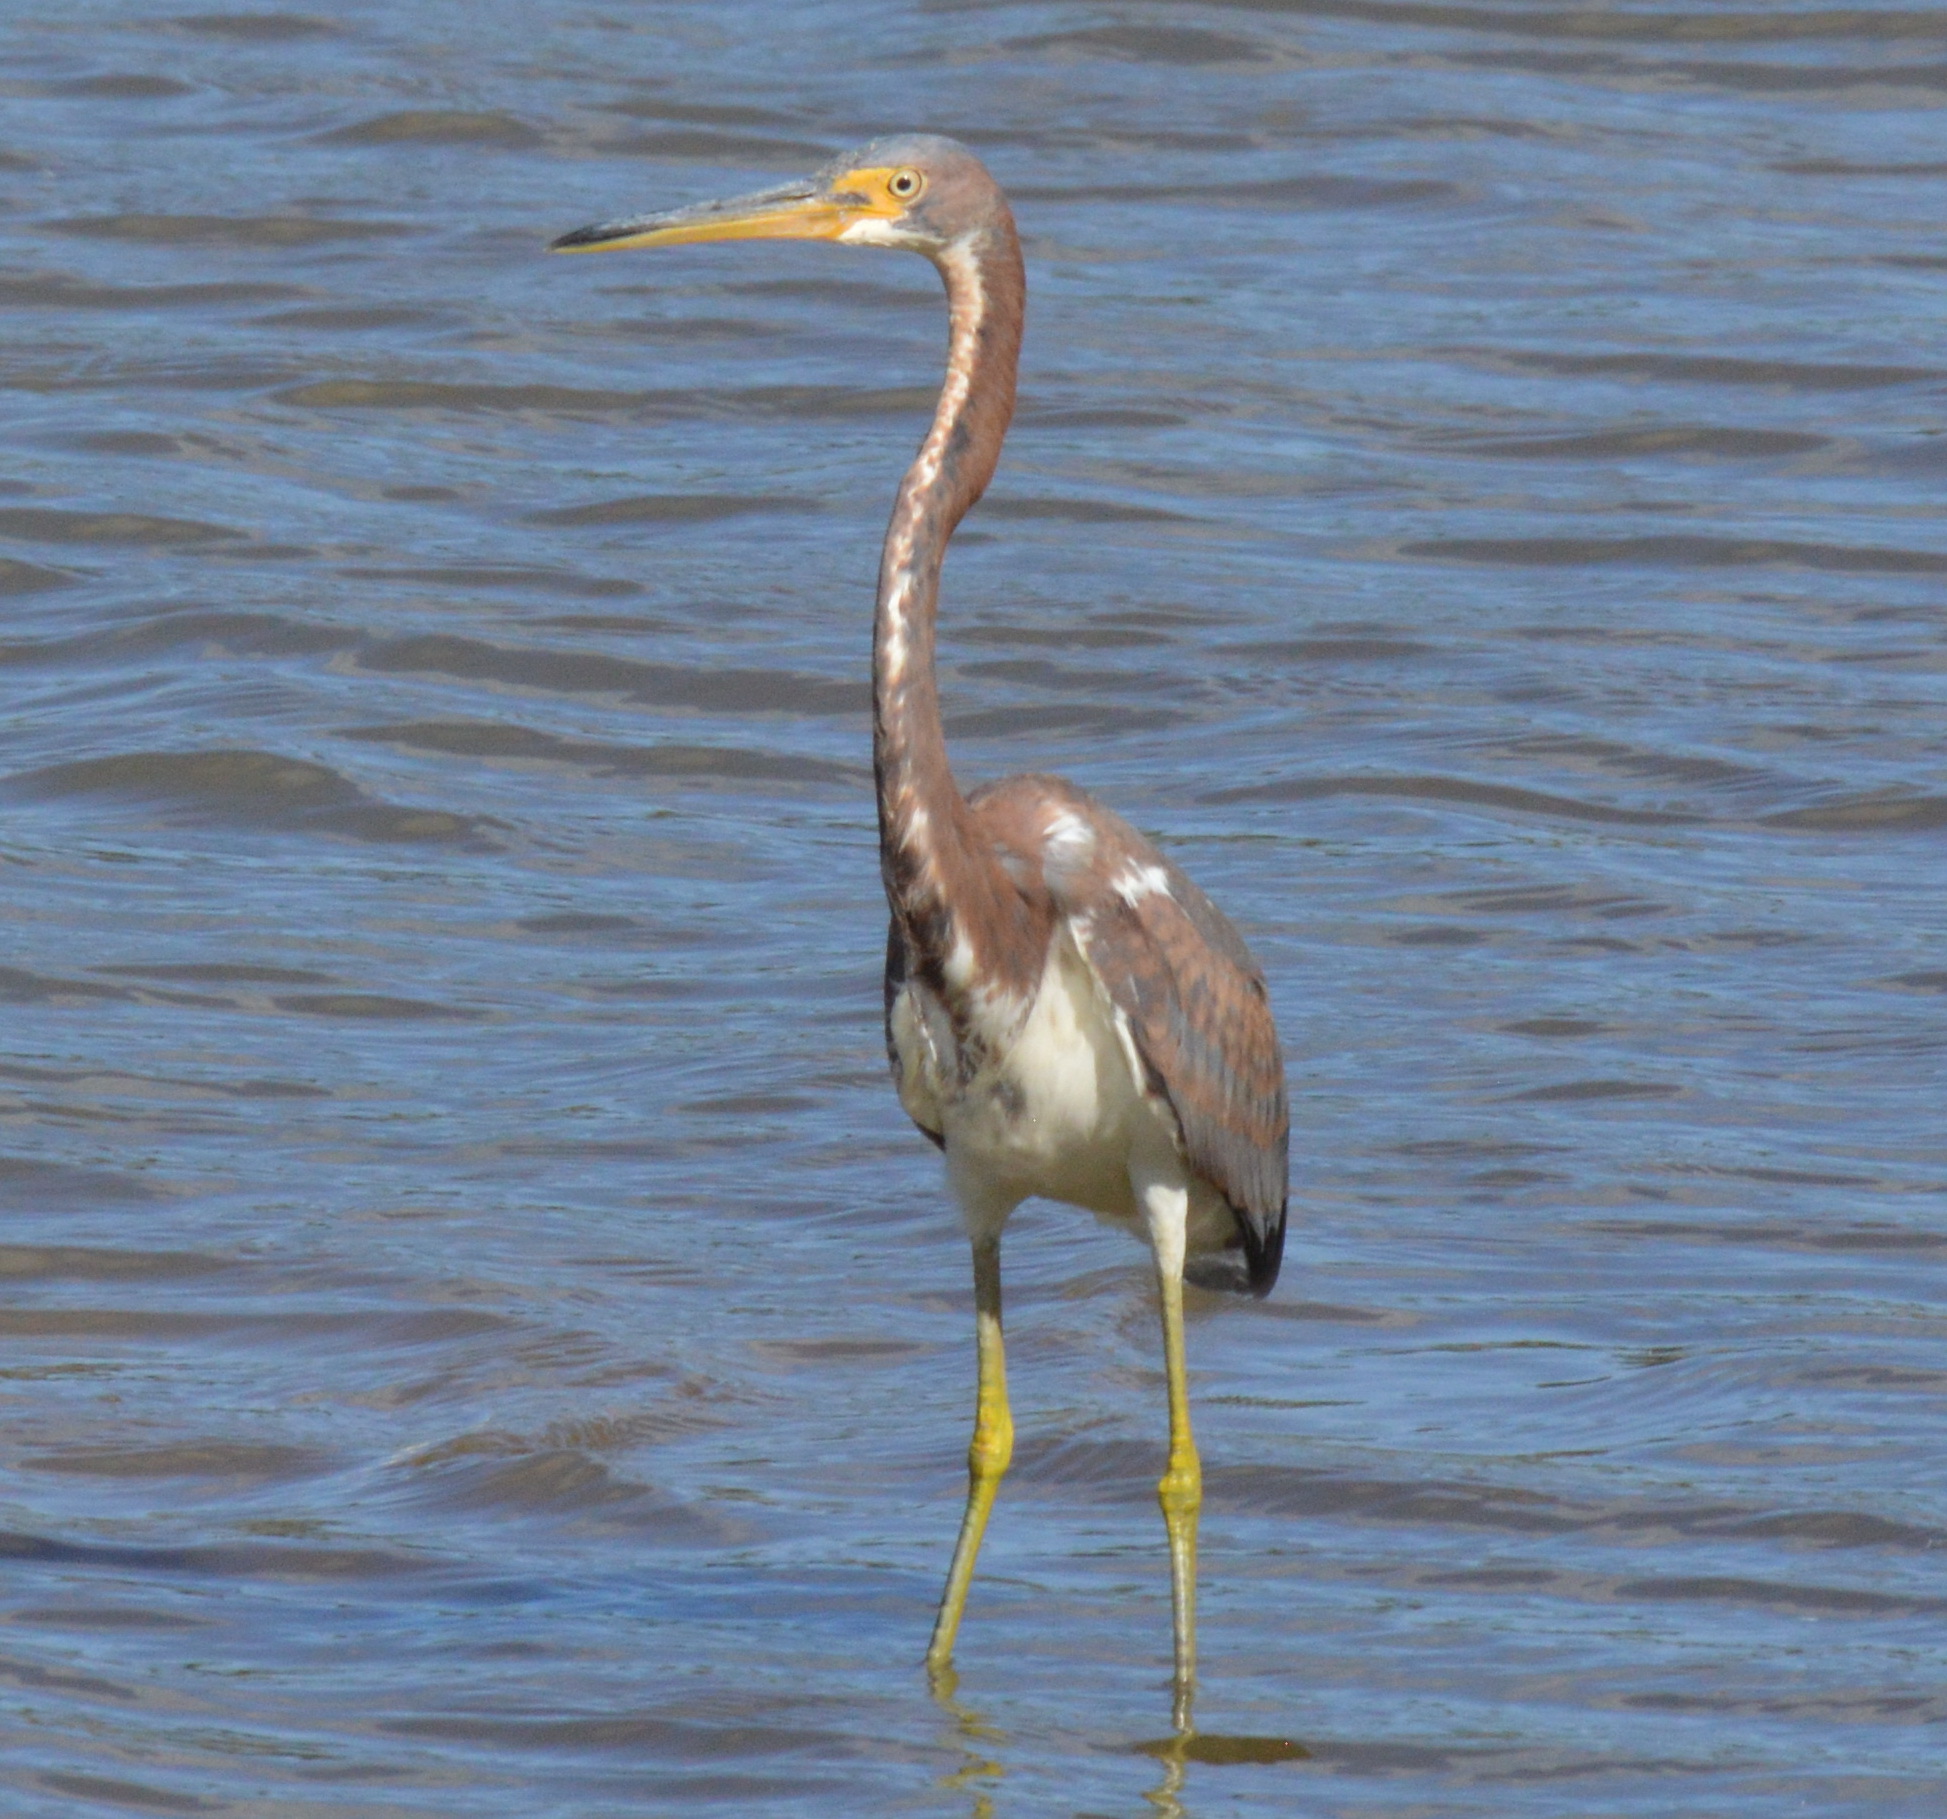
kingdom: Animalia
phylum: Chordata
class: Aves
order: Pelecaniformes
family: Ardeidae
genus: Egretta
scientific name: Egretta tricolor
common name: Tricolored heron
